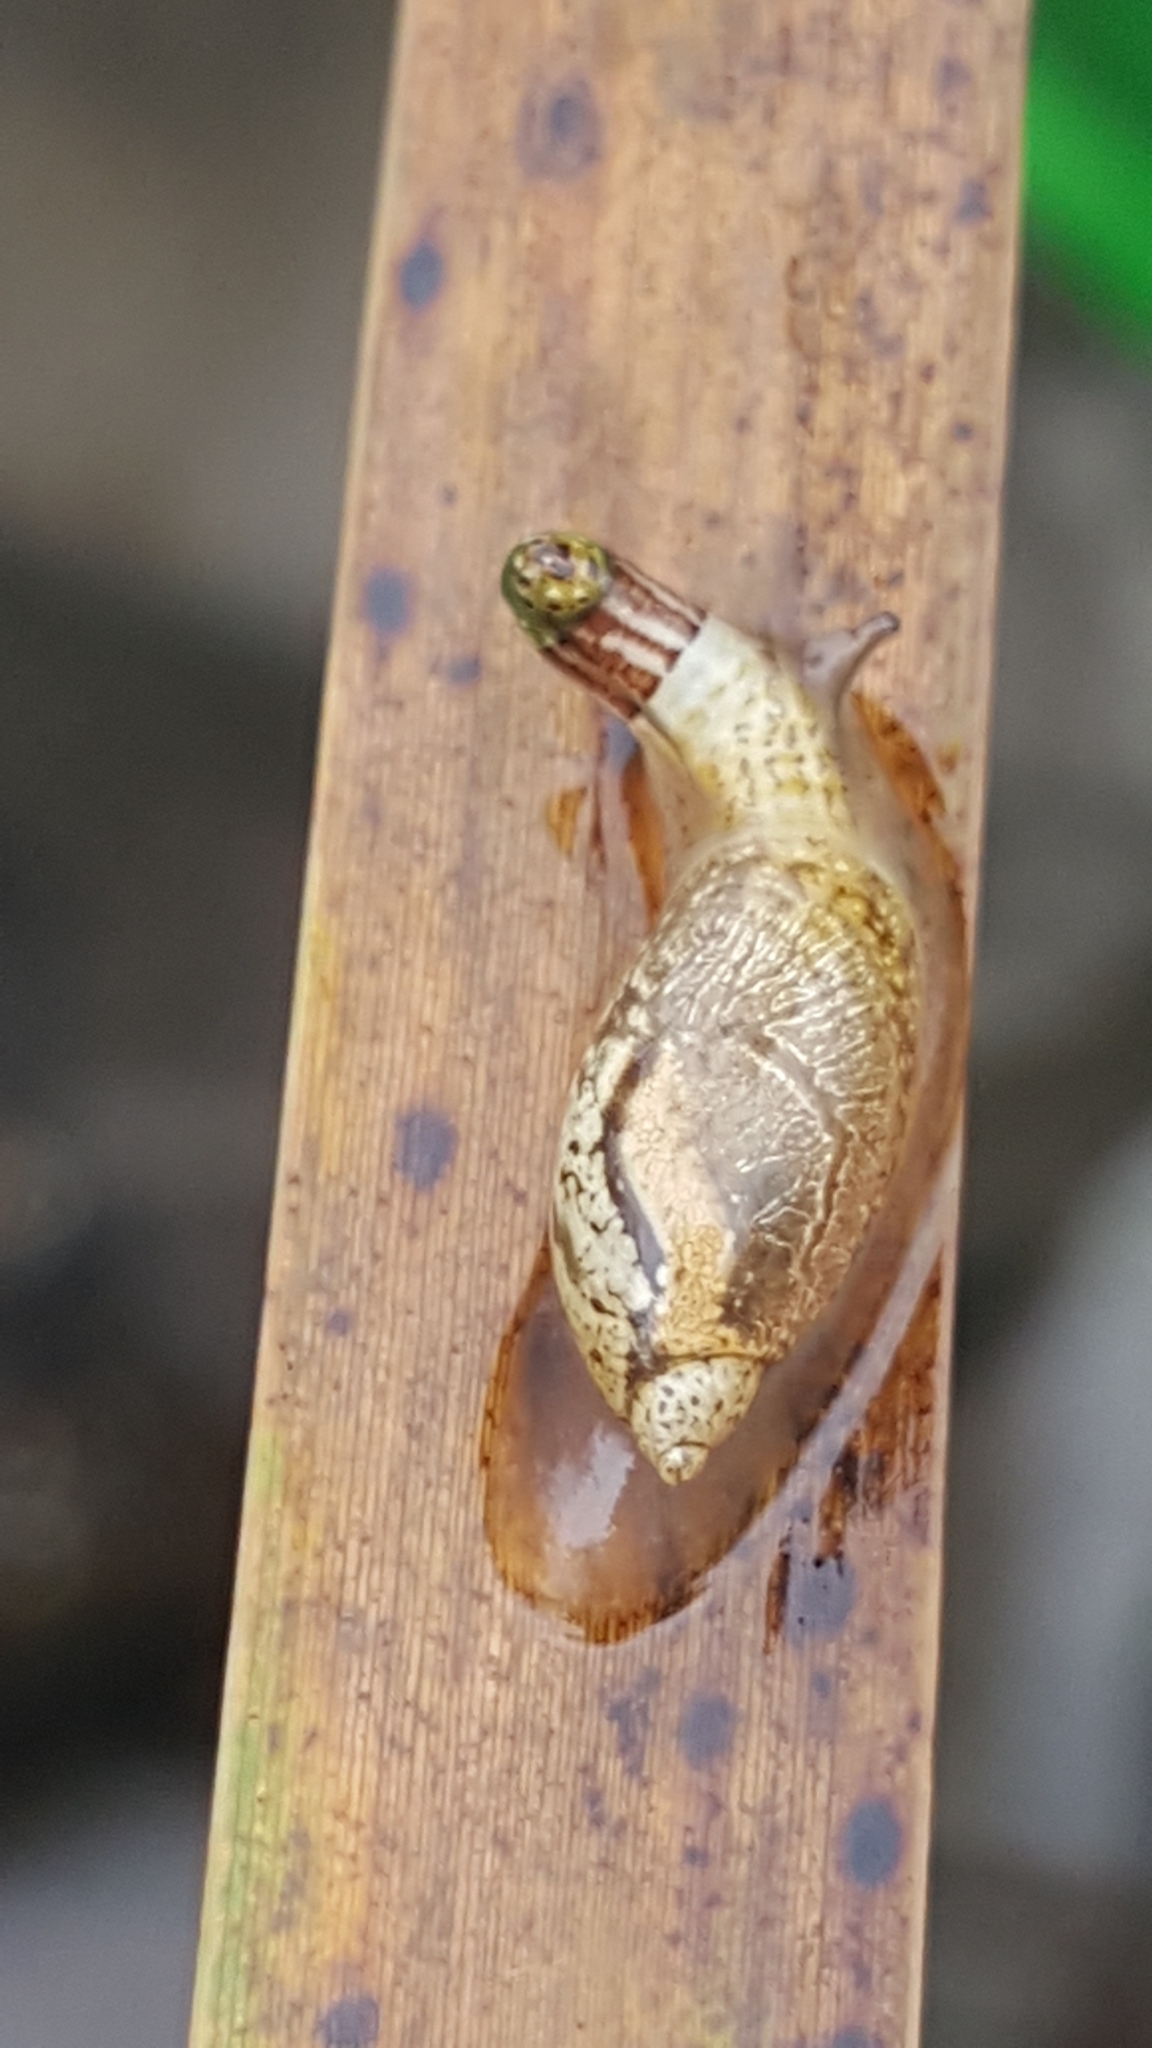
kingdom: Animalia
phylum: Platyhelminthes
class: Trematoda
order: Diplostomida
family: Leucochloridiidae
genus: Leucochloridium
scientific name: Leucochloridium paradoxum
